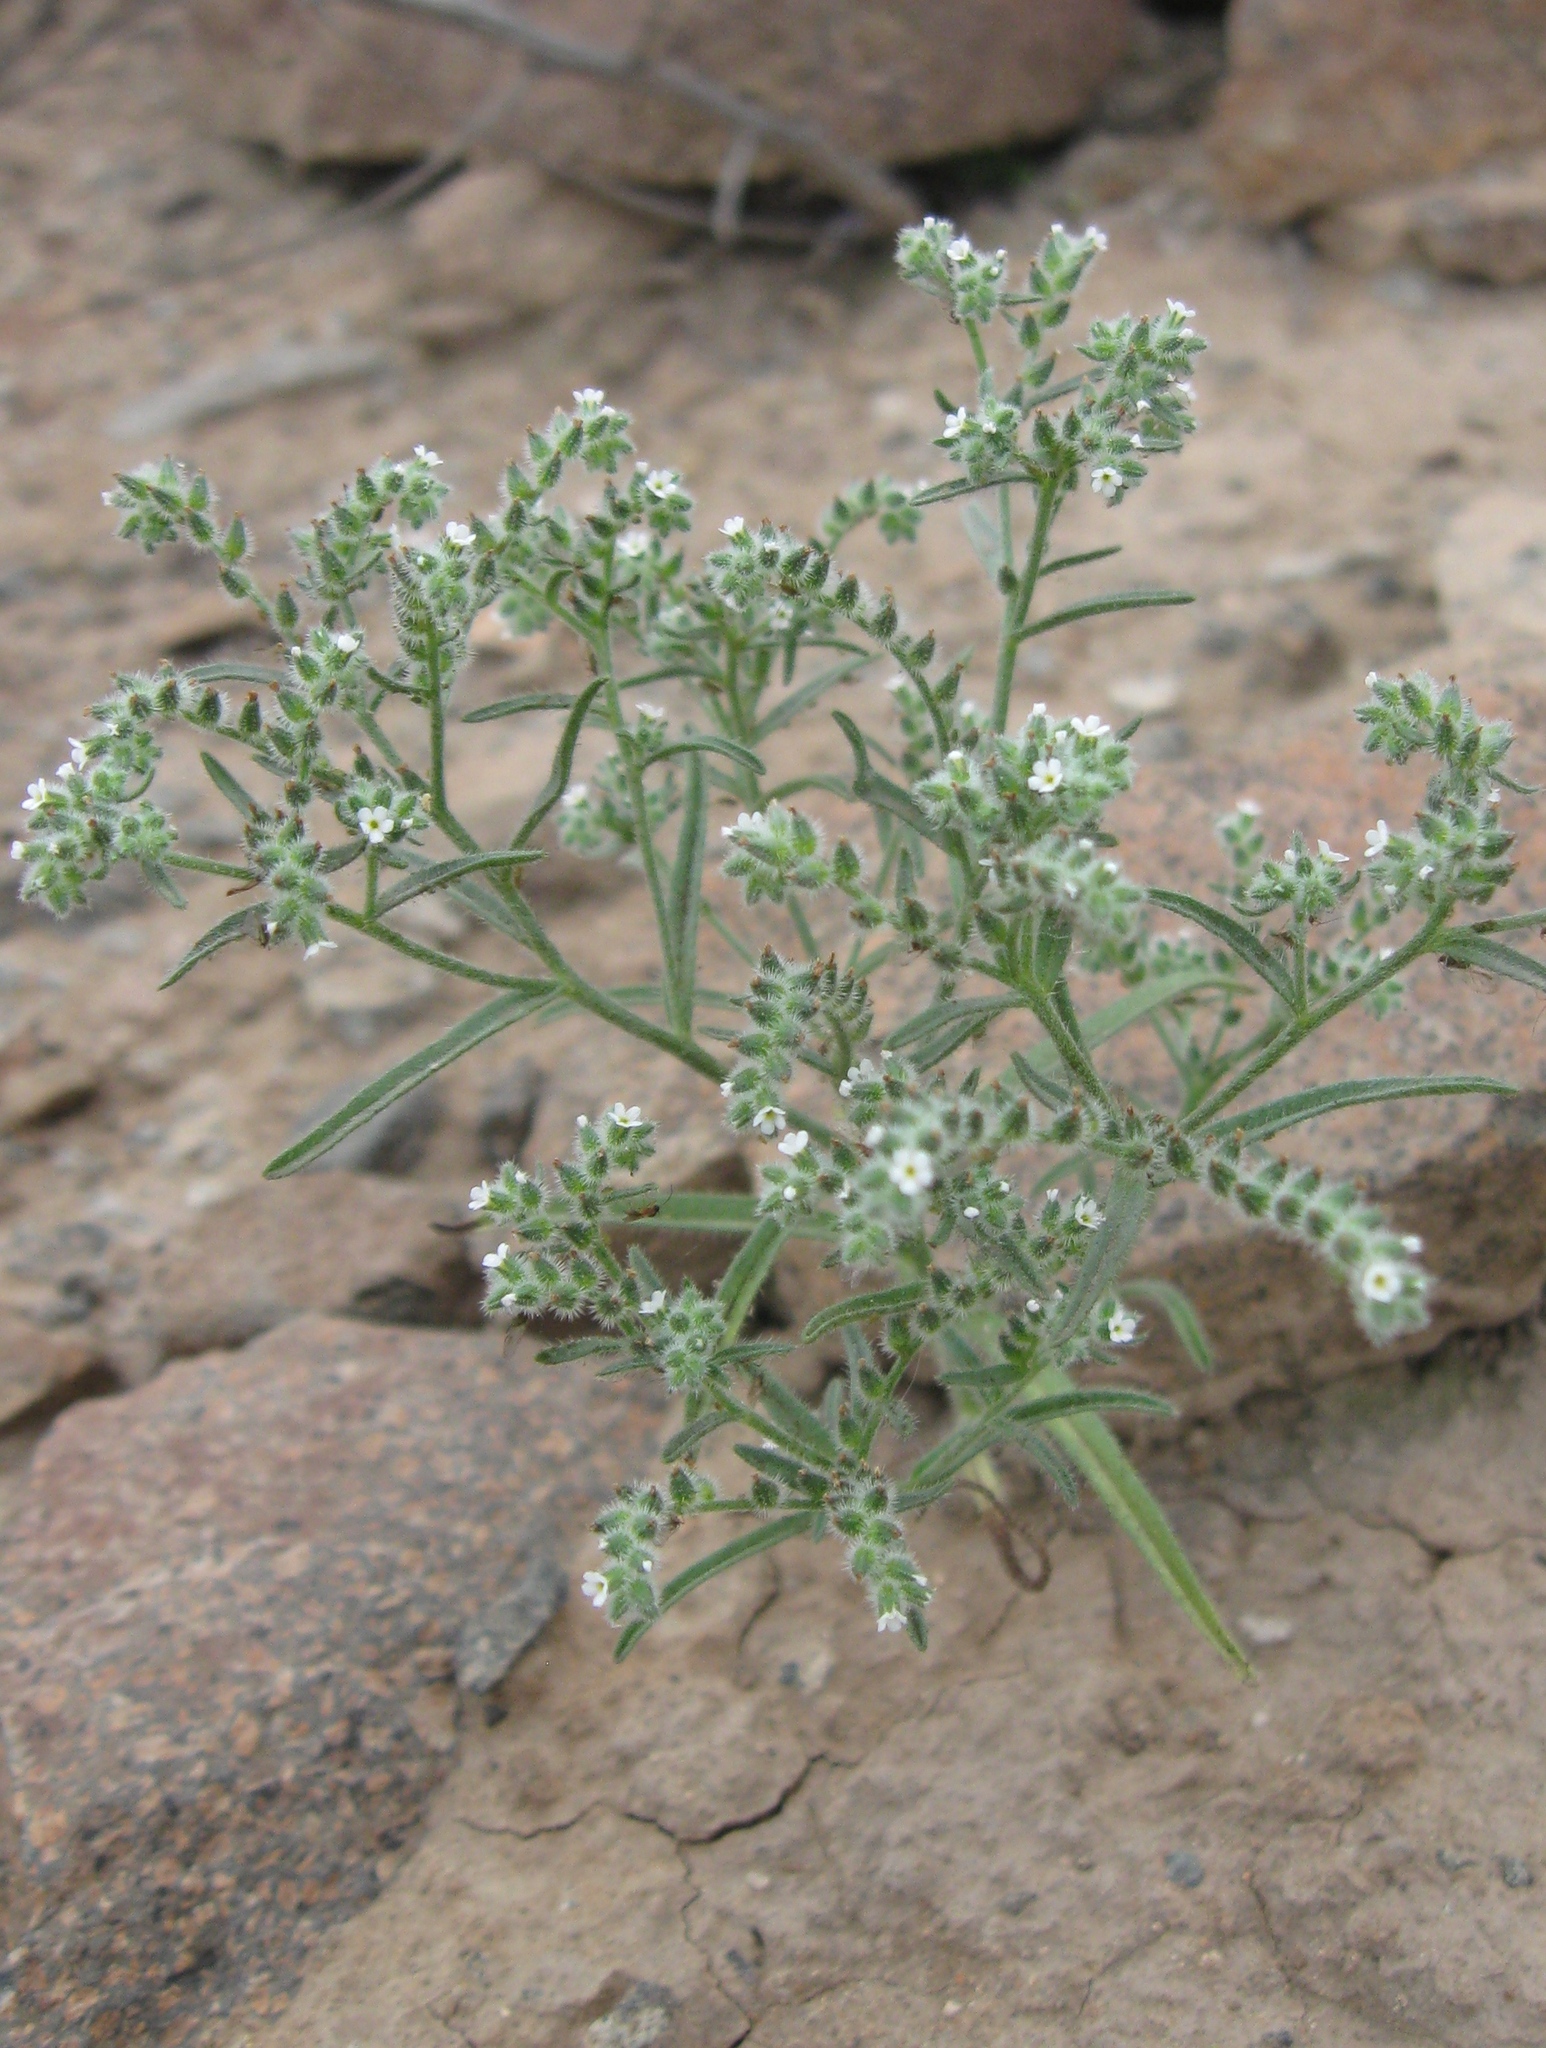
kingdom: Plantae
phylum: Tracheophyta
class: Magnoliopsida
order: Boraginales
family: Boraginaceae
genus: Johnstonella
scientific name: Johnstonella parviflora
